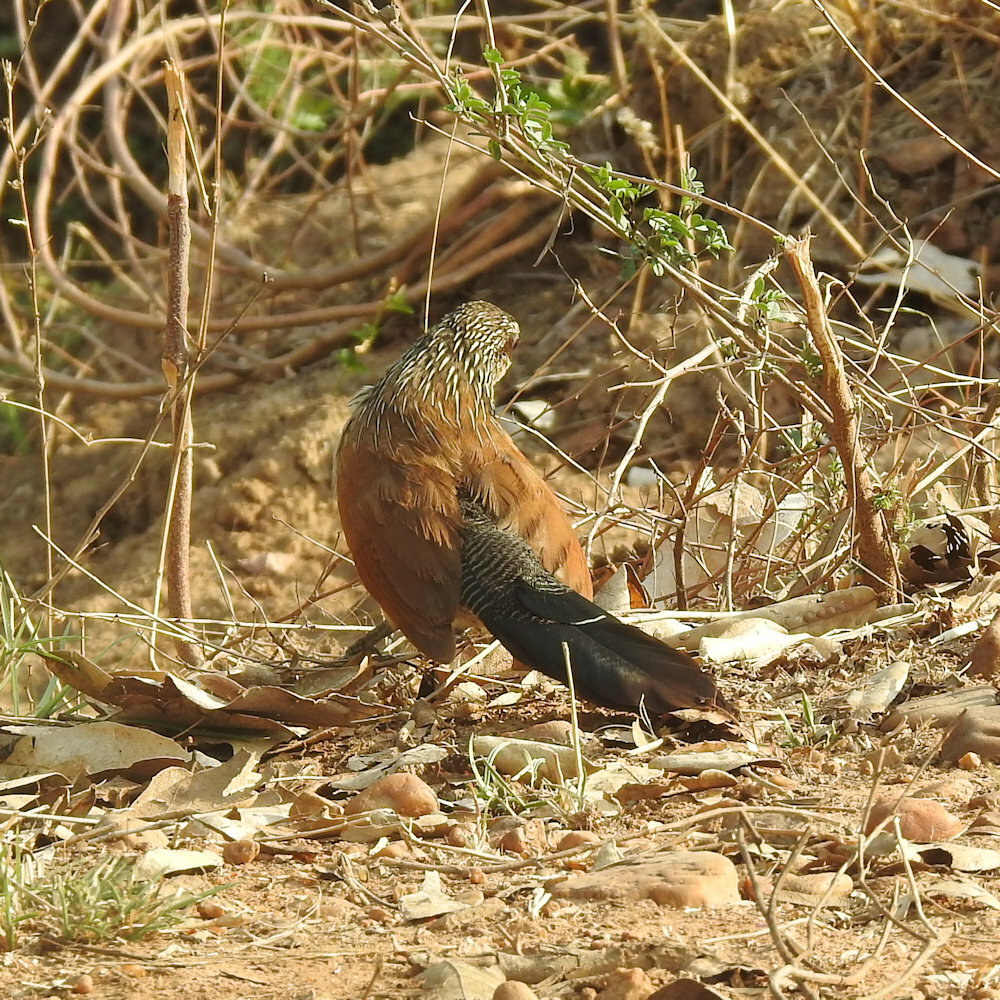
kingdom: Animalia
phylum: Chordata
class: Aves
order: Cuculiformes
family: Cuculidae
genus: Centropus
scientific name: Centropus superciliosus
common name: White-browed coucal
